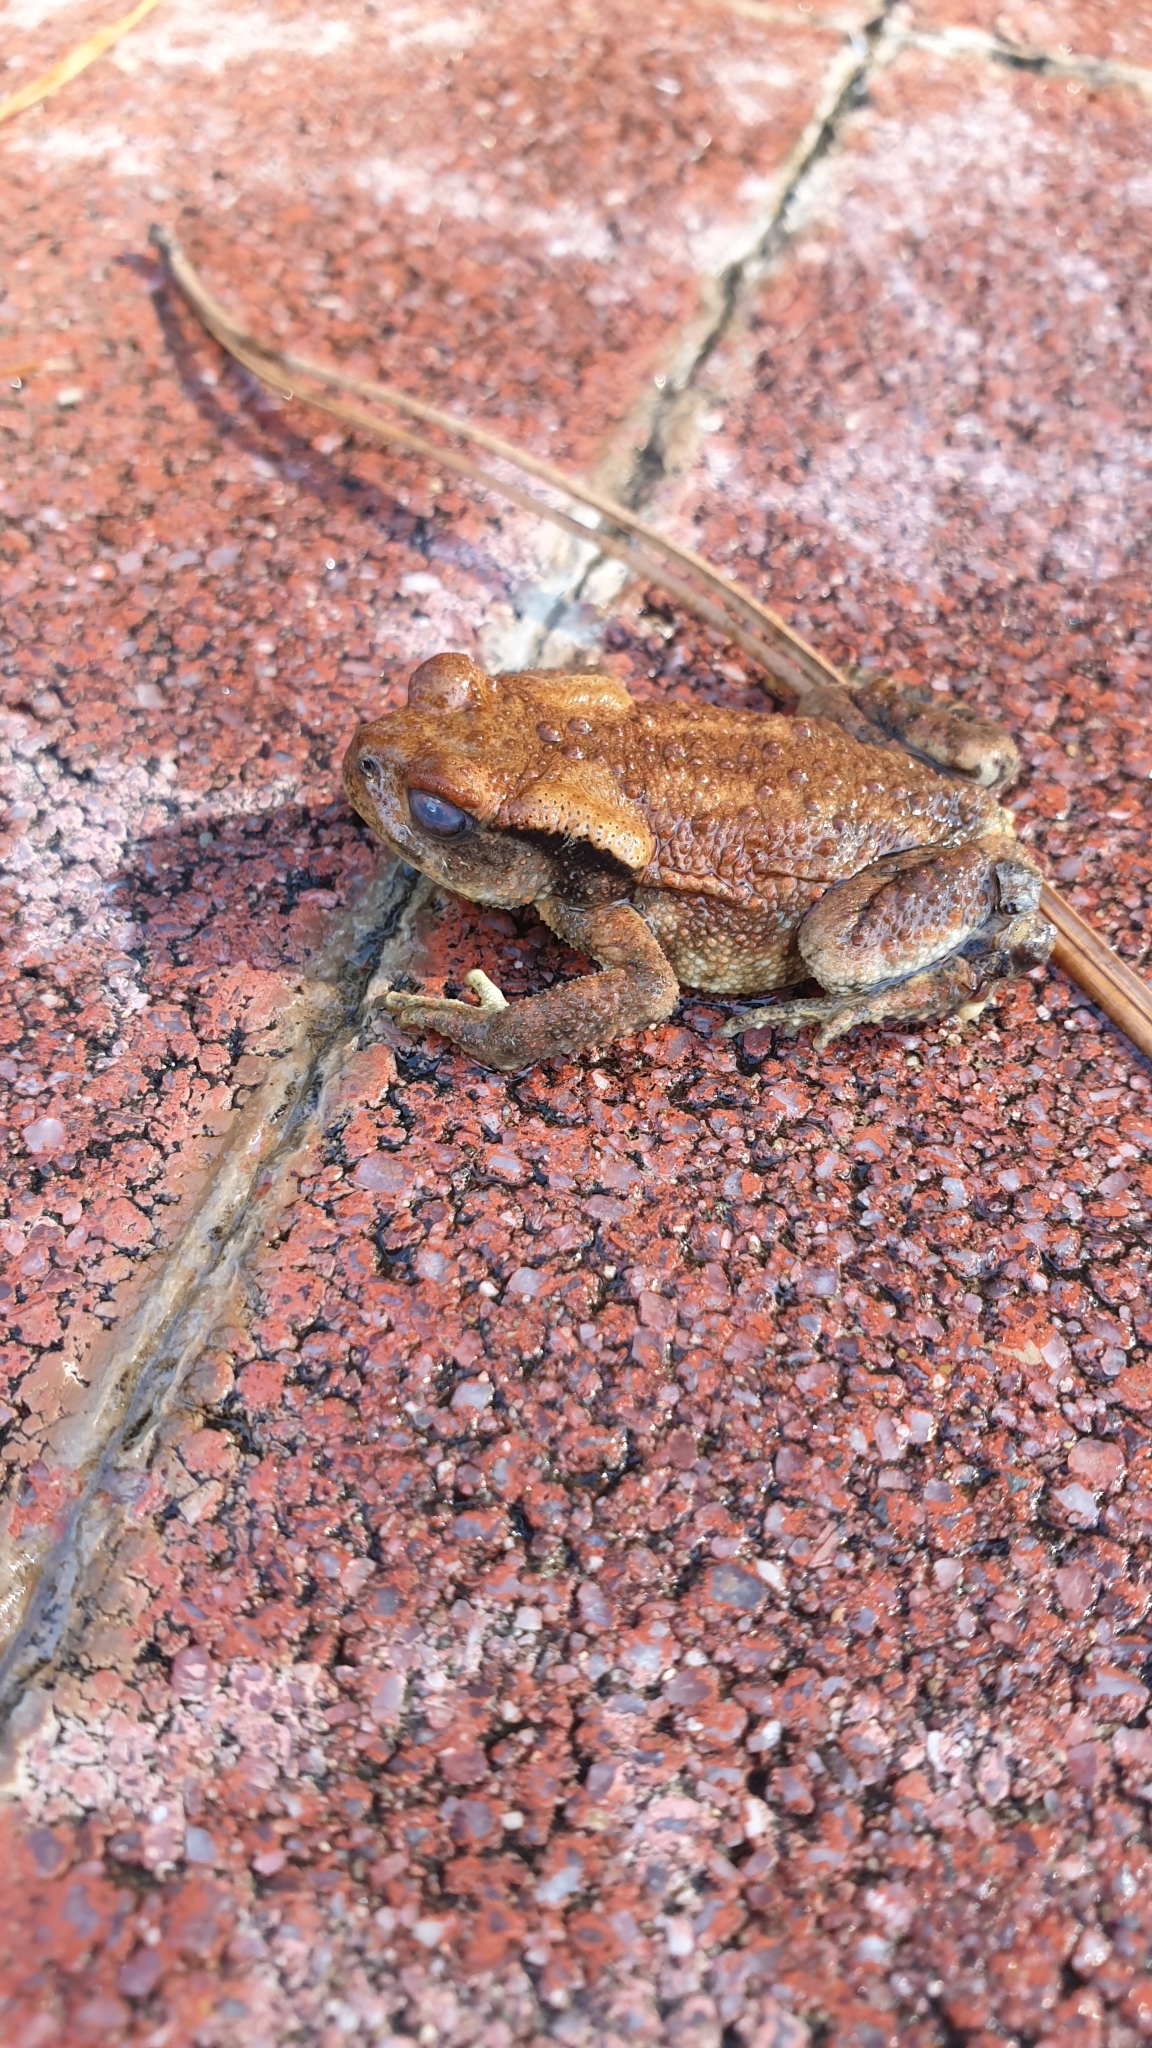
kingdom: Animalia
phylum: Chordata
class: Amphibia
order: Anura
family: Bufonidae
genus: Bufo
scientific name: Bufo spinosus
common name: Western common toad
